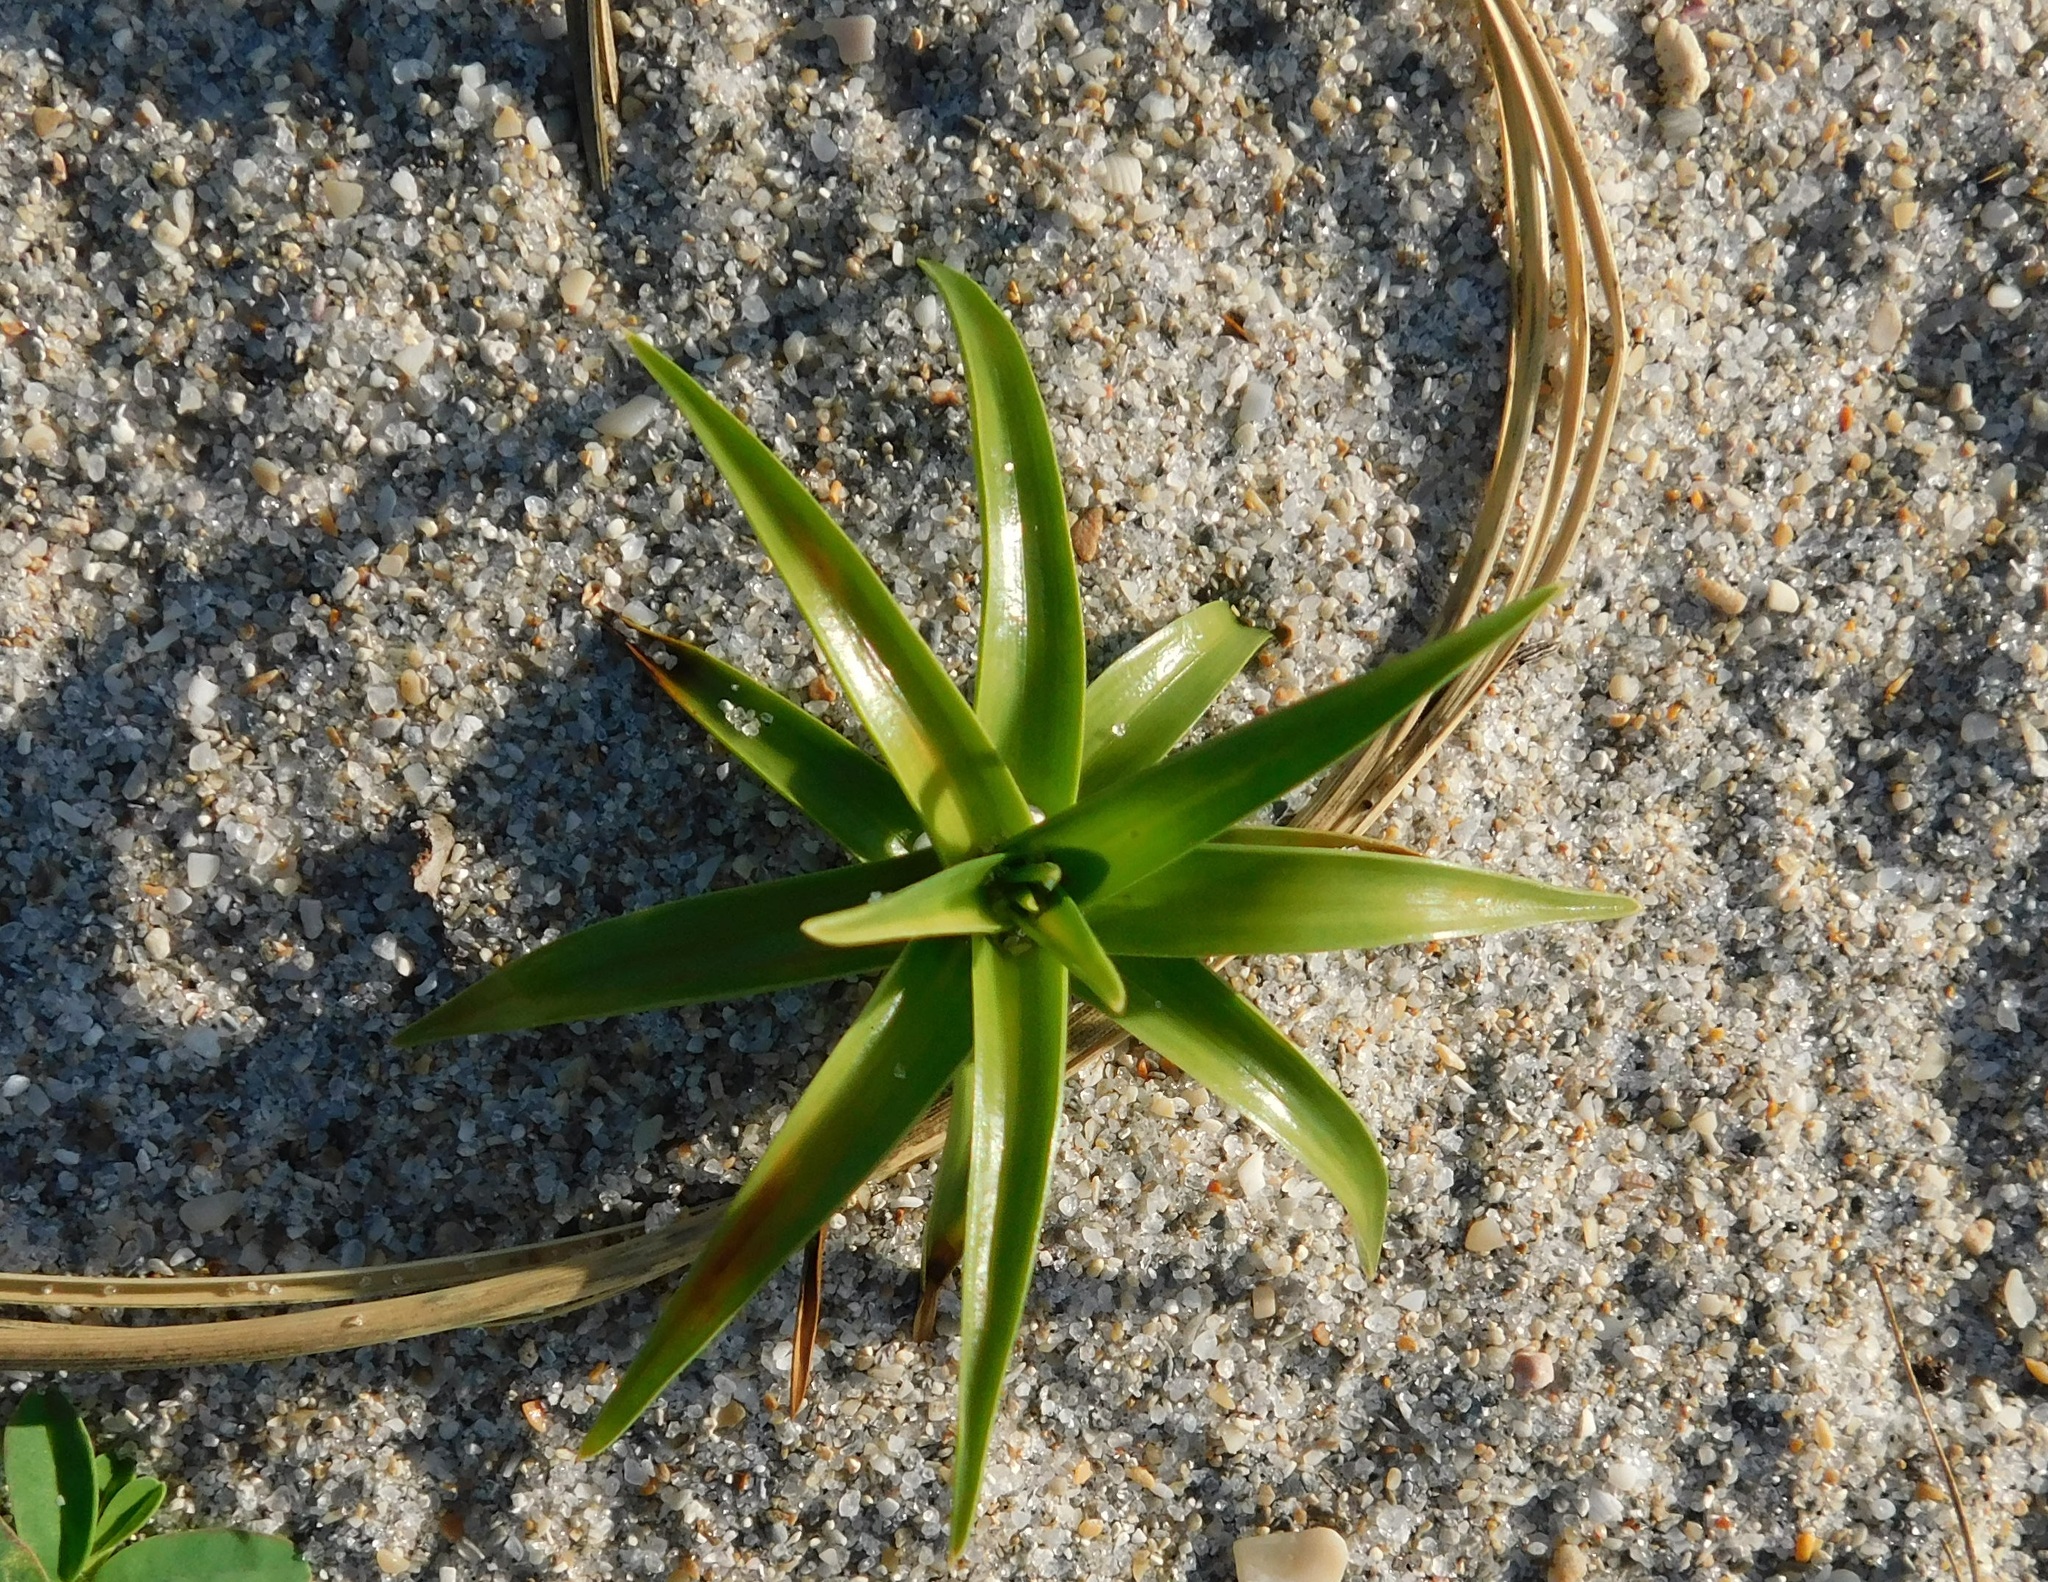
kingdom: Plantae
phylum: Tracheophyta
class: Liliopsida
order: Poales
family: Cyperaceae
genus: Cyperus
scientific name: Cyperus pedunculatus
